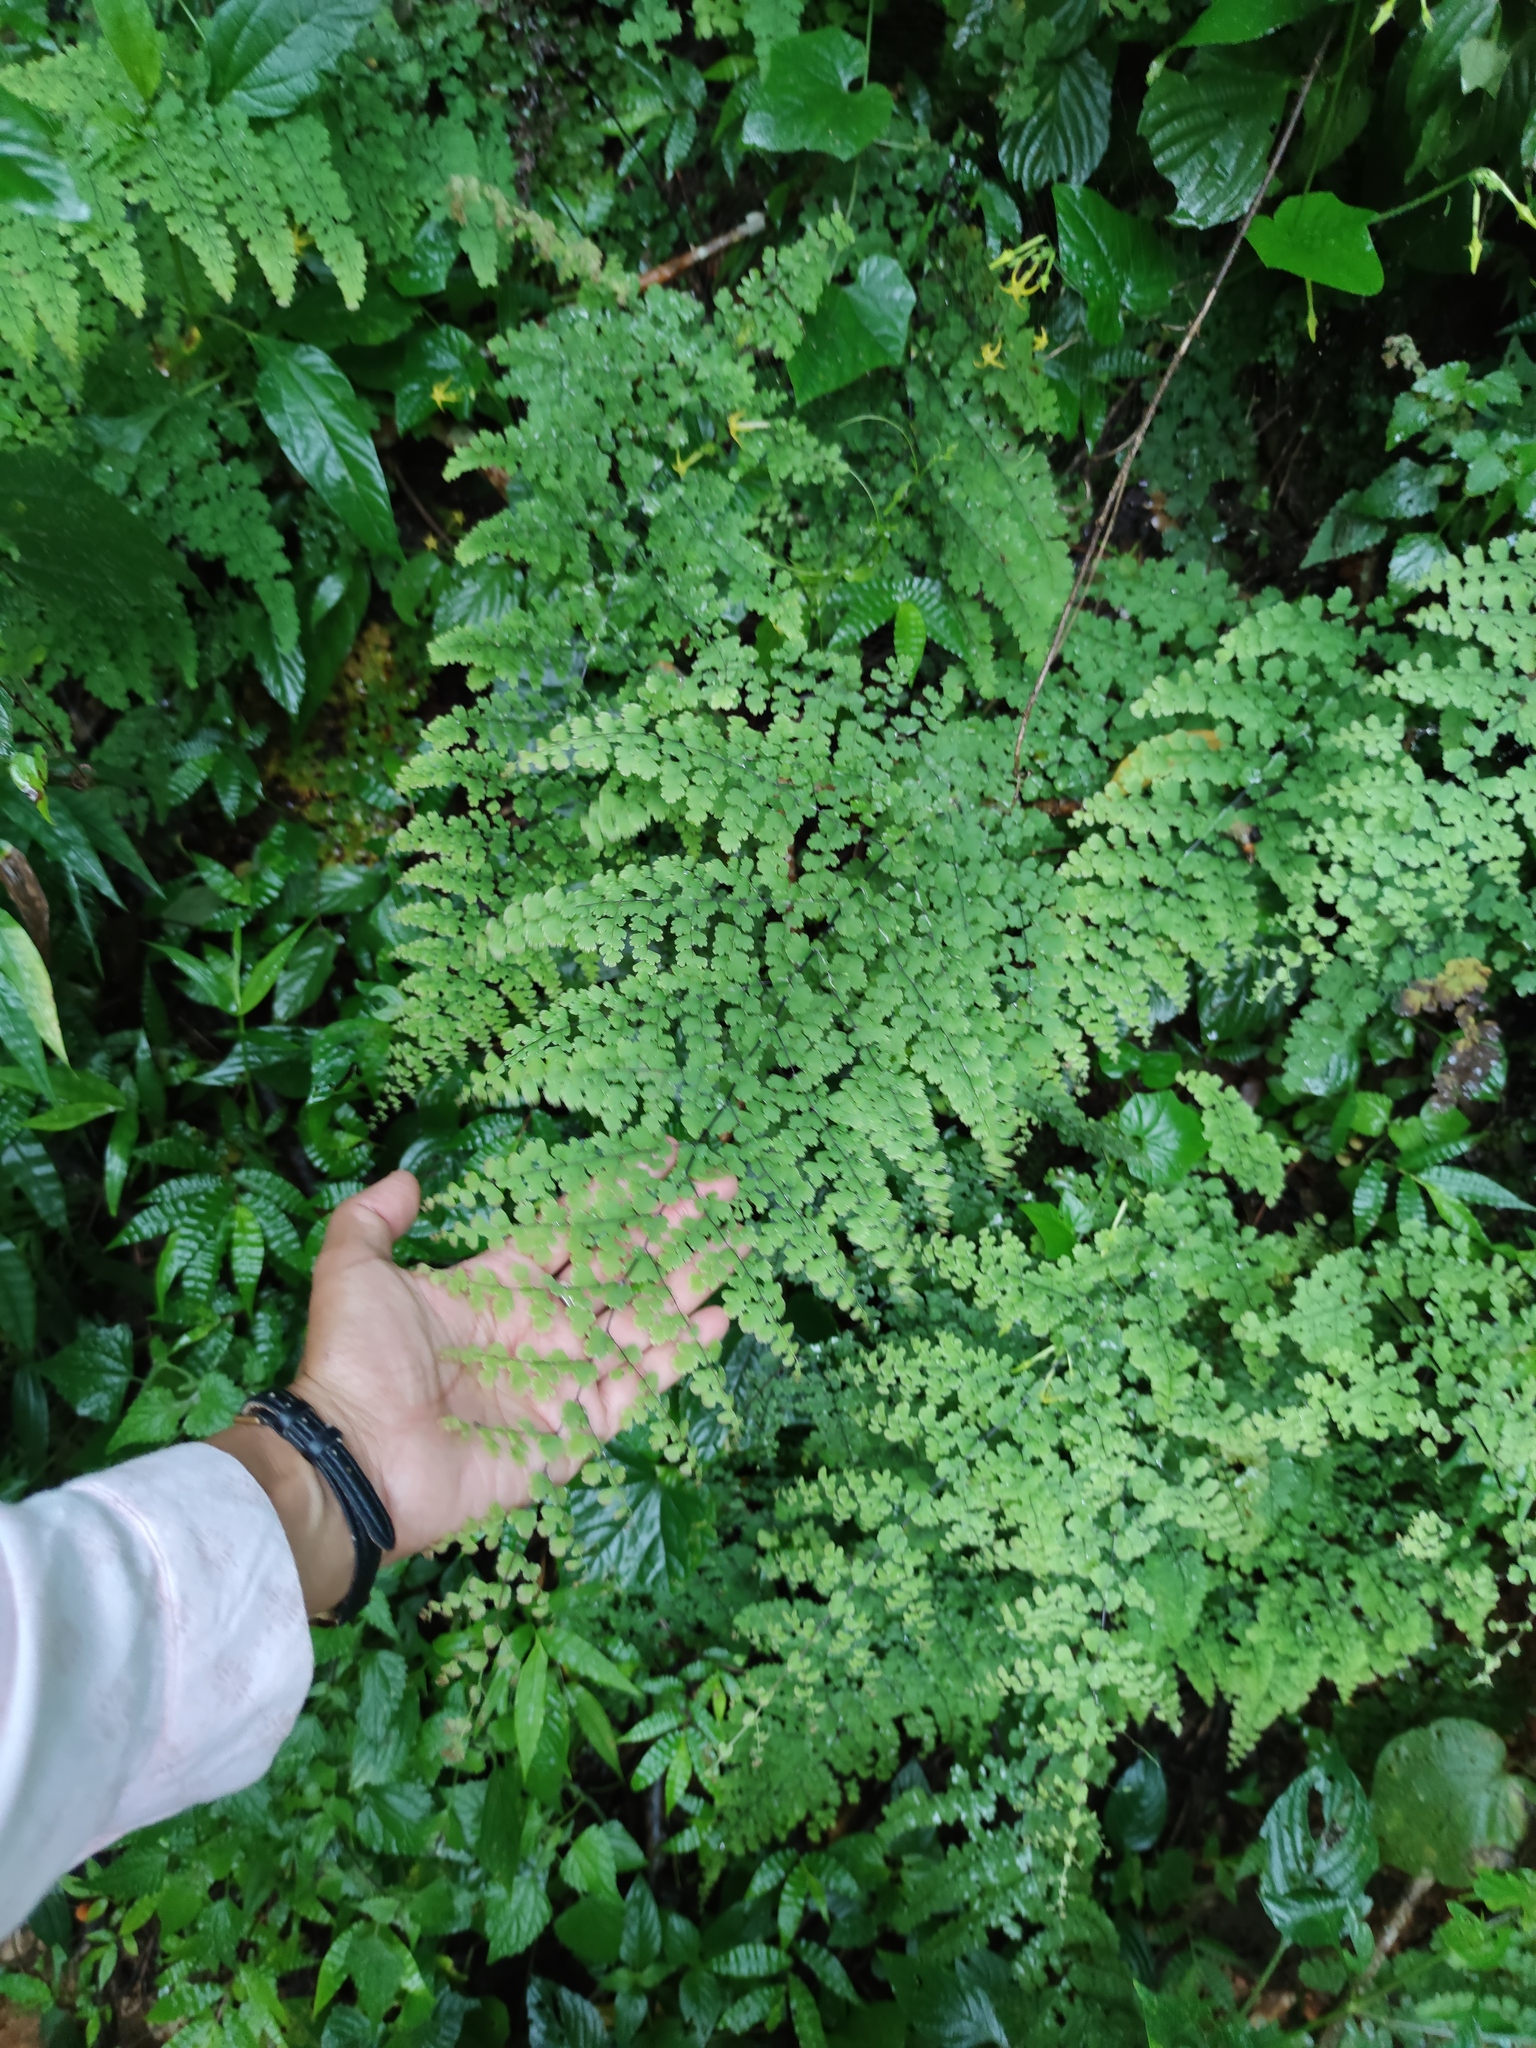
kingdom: Plantae
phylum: Tracheophyta
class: Polypodiopsida
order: Polypodiales
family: Pteridaceae
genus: Adiantum
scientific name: Adiantum concinnum
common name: Brittle maidenhair fern
